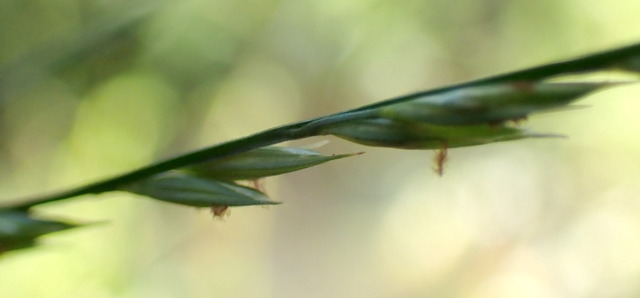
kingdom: Plantae
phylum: Tracheophyta
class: Liliopsida
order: Poales
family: Poaceae
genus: Panicum
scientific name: Panicum gymnocarpon
